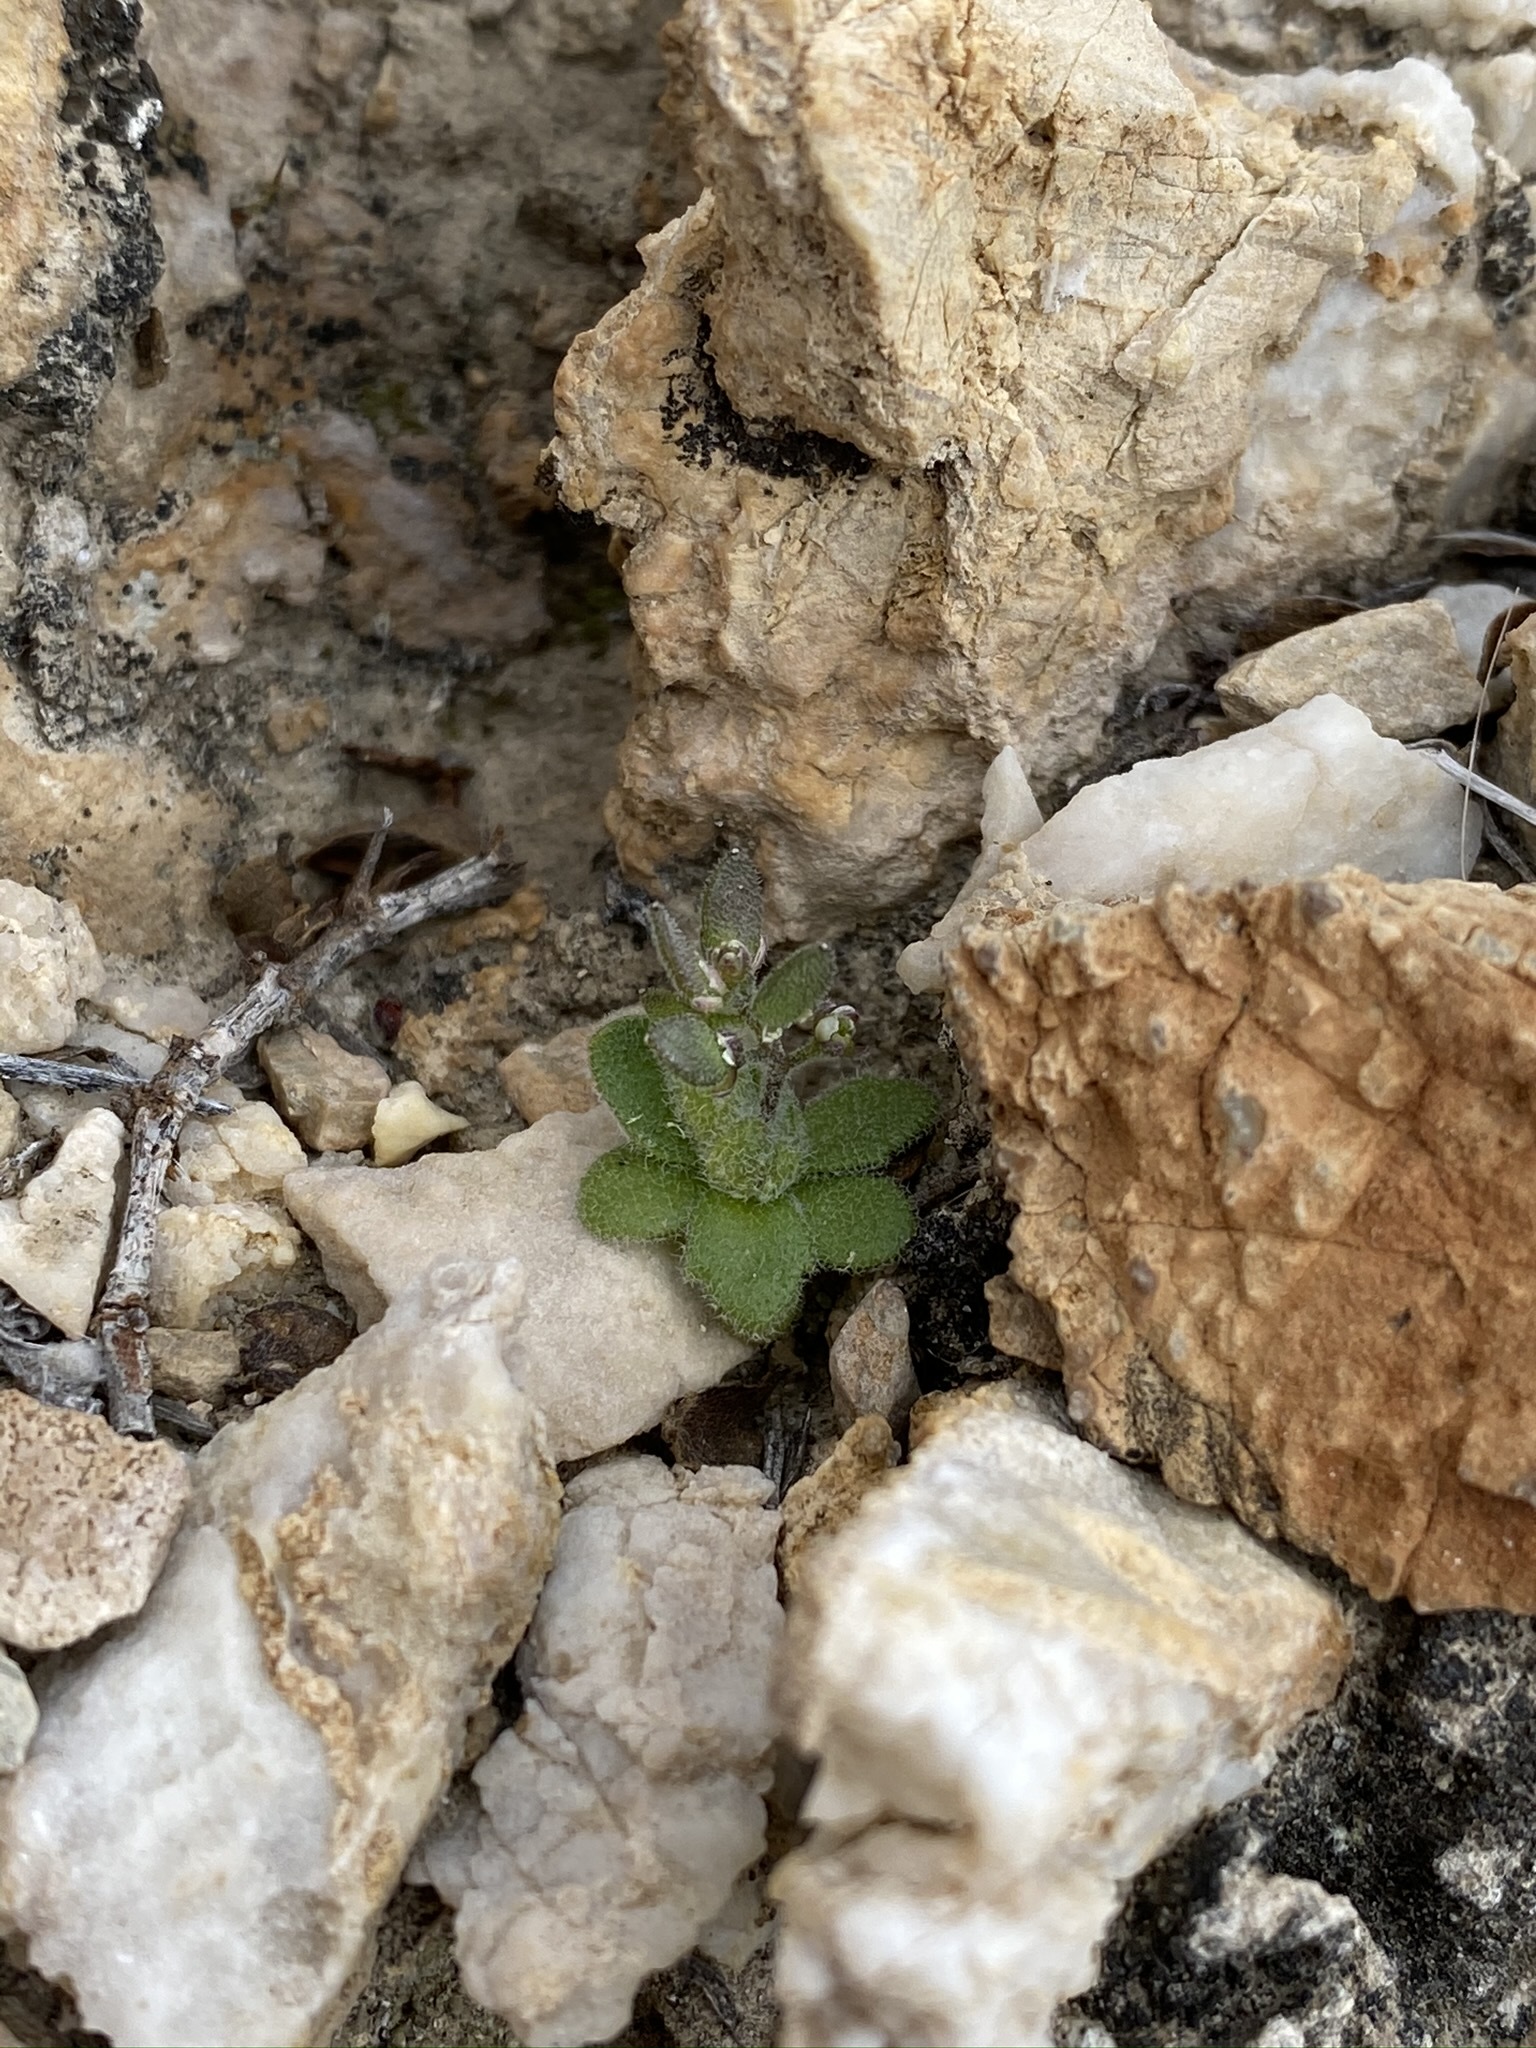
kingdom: Plantae
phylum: Tracheophyta
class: Magnoliopsida
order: Brassicales
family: Brassicaceae
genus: Tomostima
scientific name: Tomostima cuneifolia
